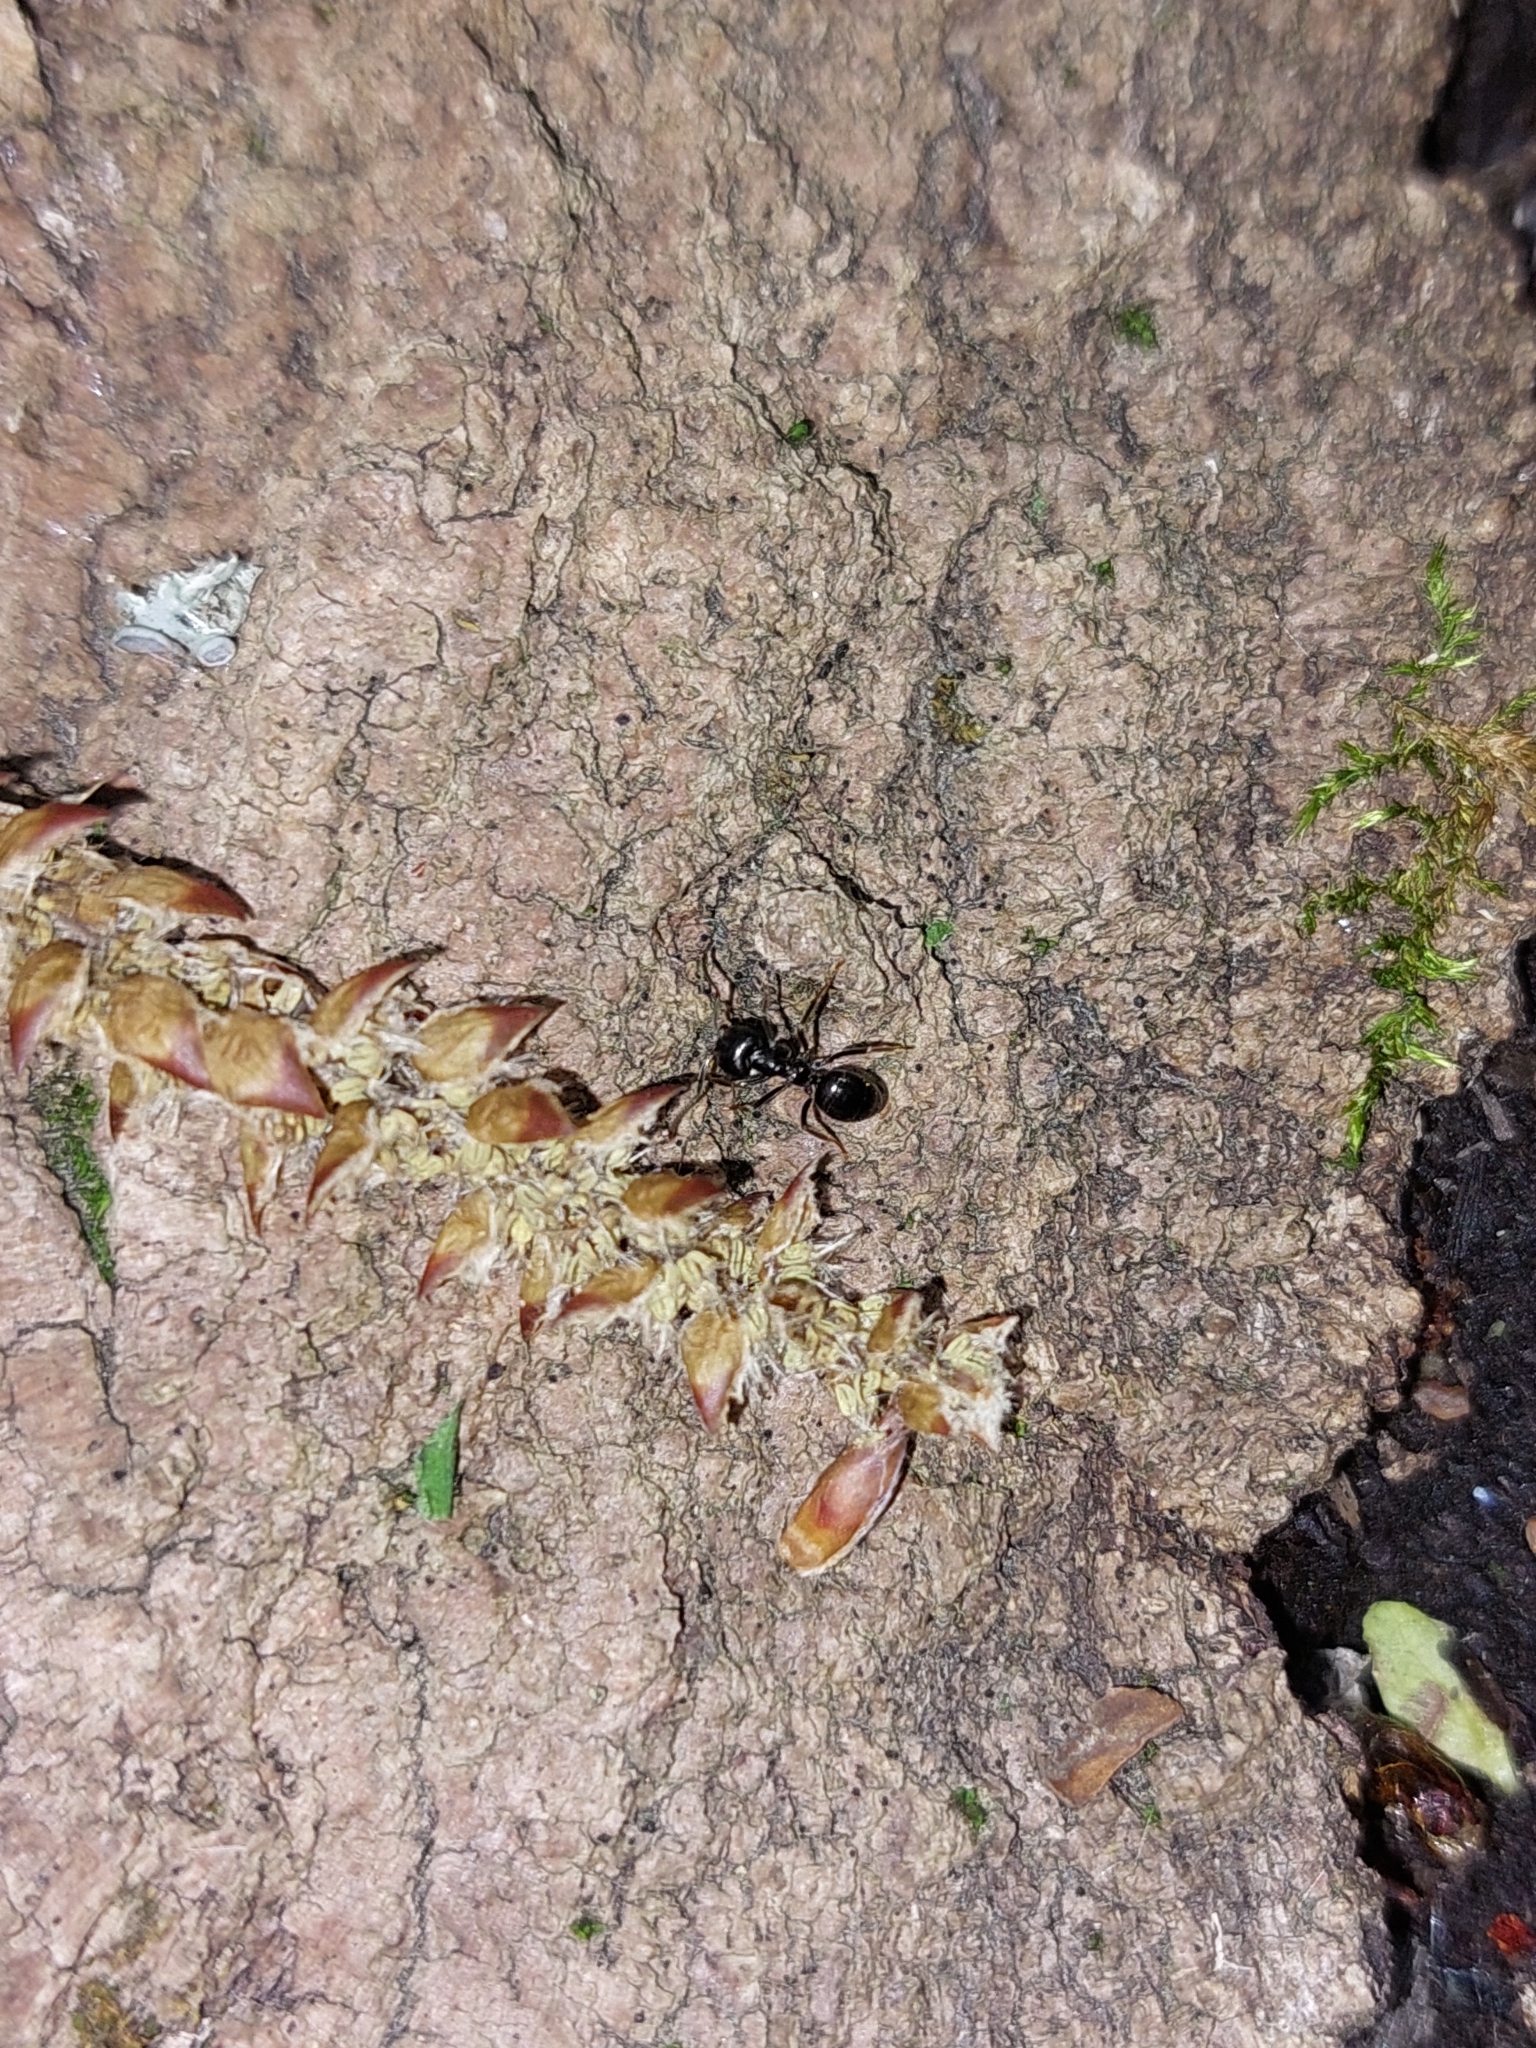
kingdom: Animalia
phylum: Arthropoda
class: Insecta
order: Hymenoptera
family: Formicidae
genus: Lasius
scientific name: Lasius fuliginosus
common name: Jet ant
